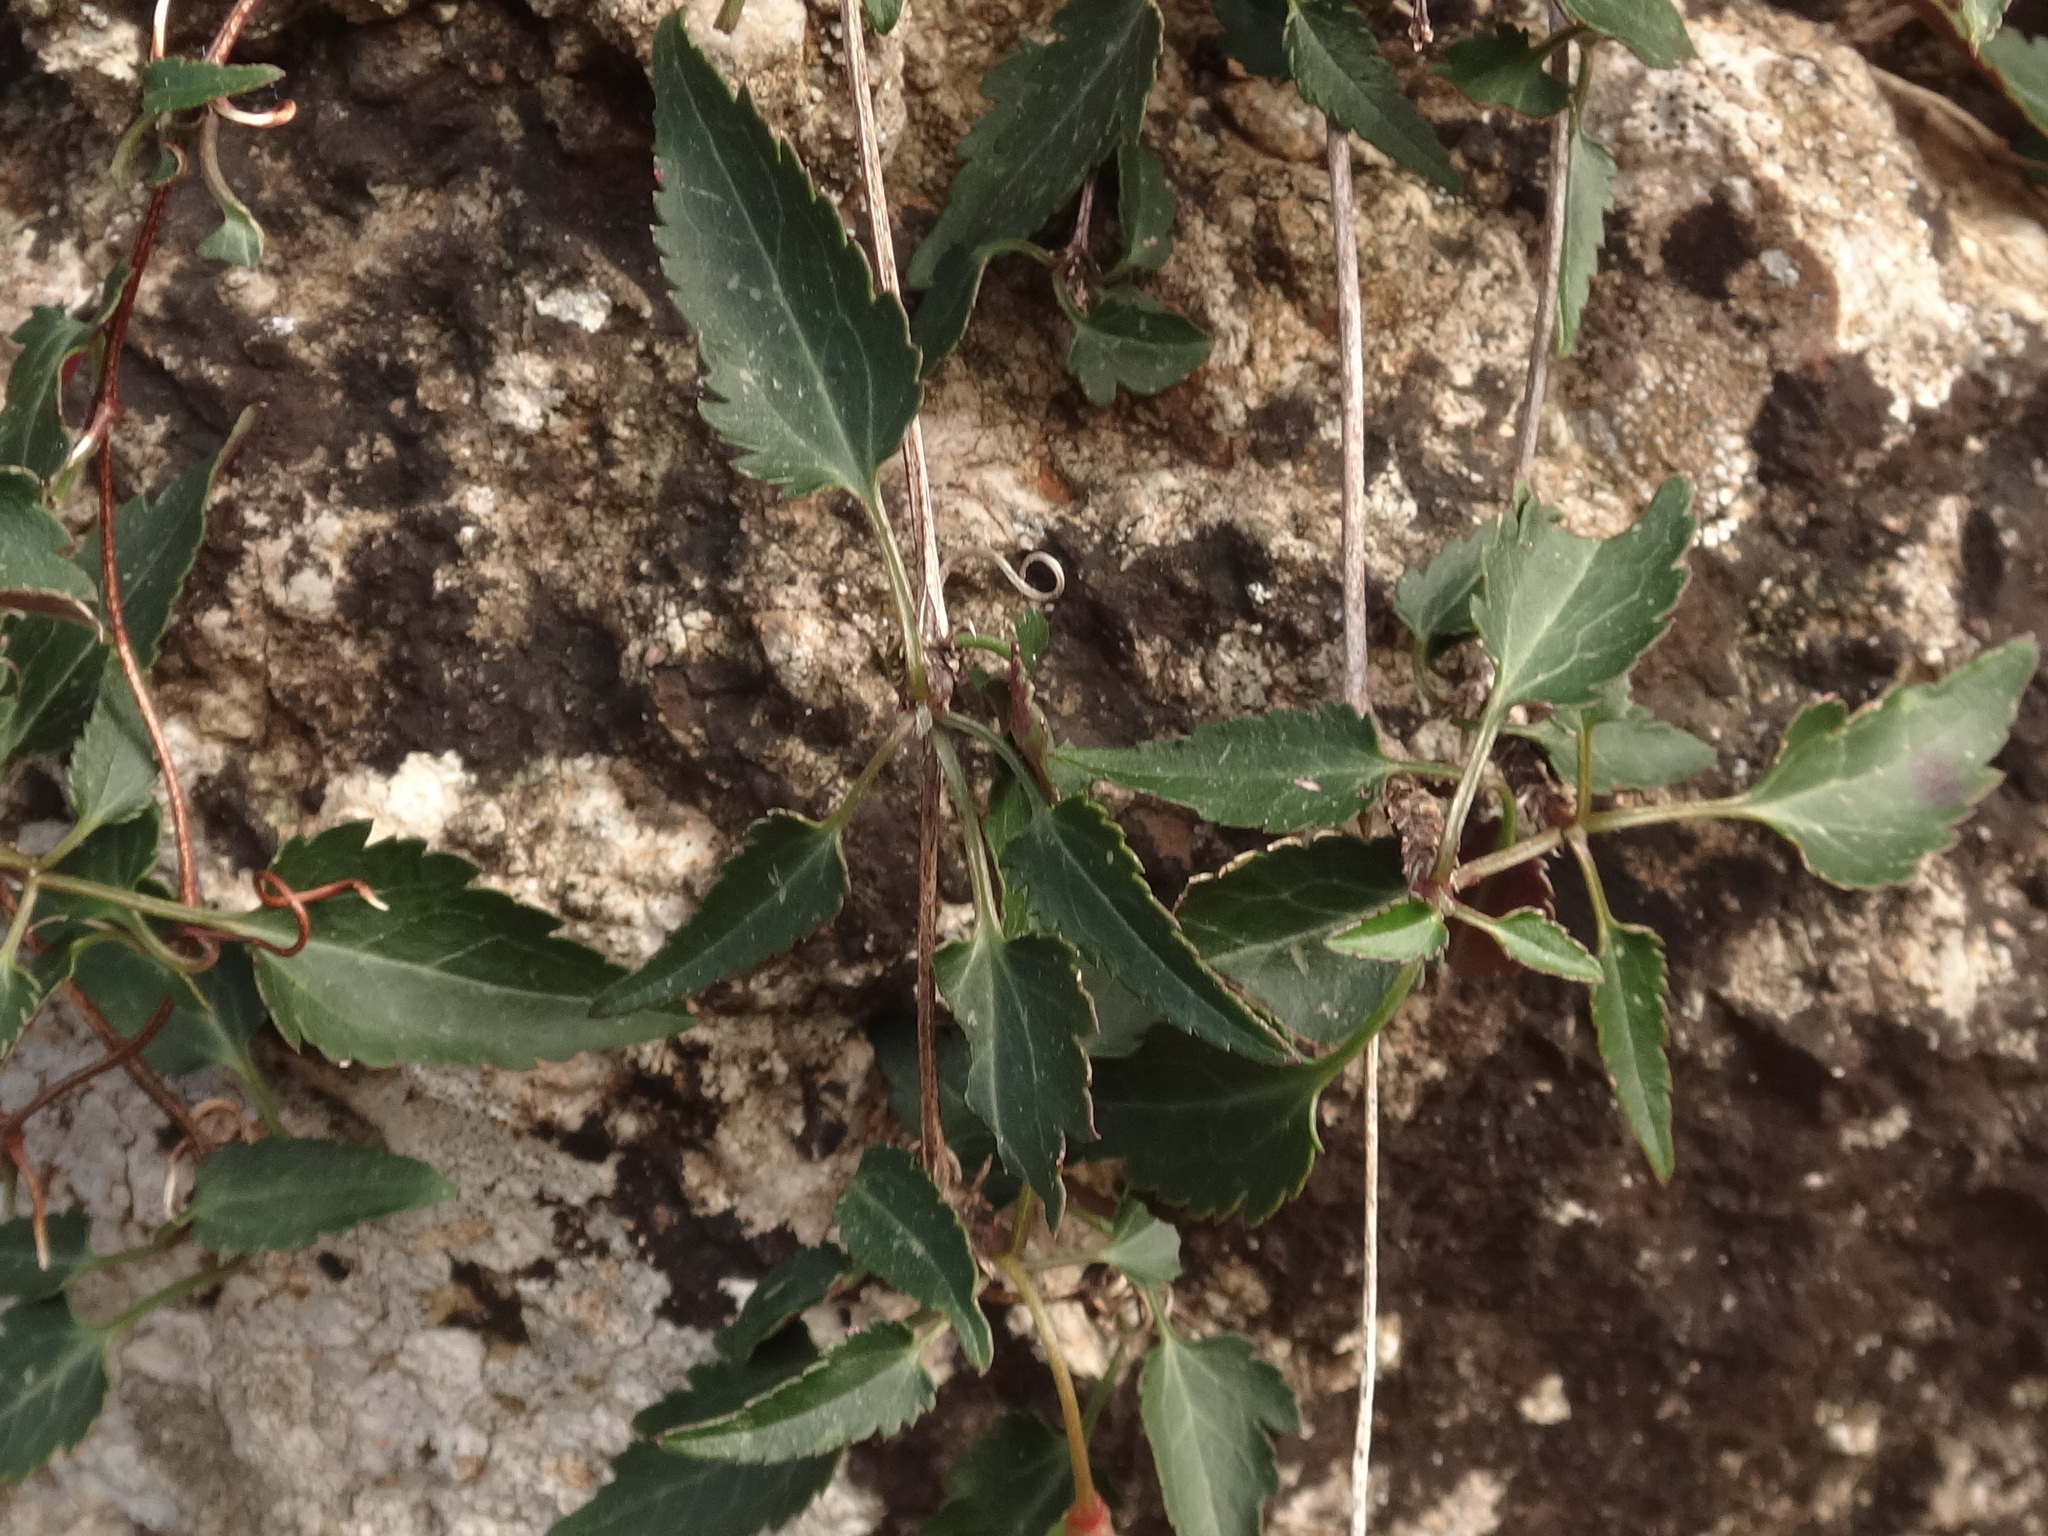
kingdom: Plantae
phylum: Tracheophyta
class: Magnoliopsida
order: Ranunculales
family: Ranunculaceae
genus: Clematis
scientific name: Clematis cirrhosa
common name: Early virgin's-bower
